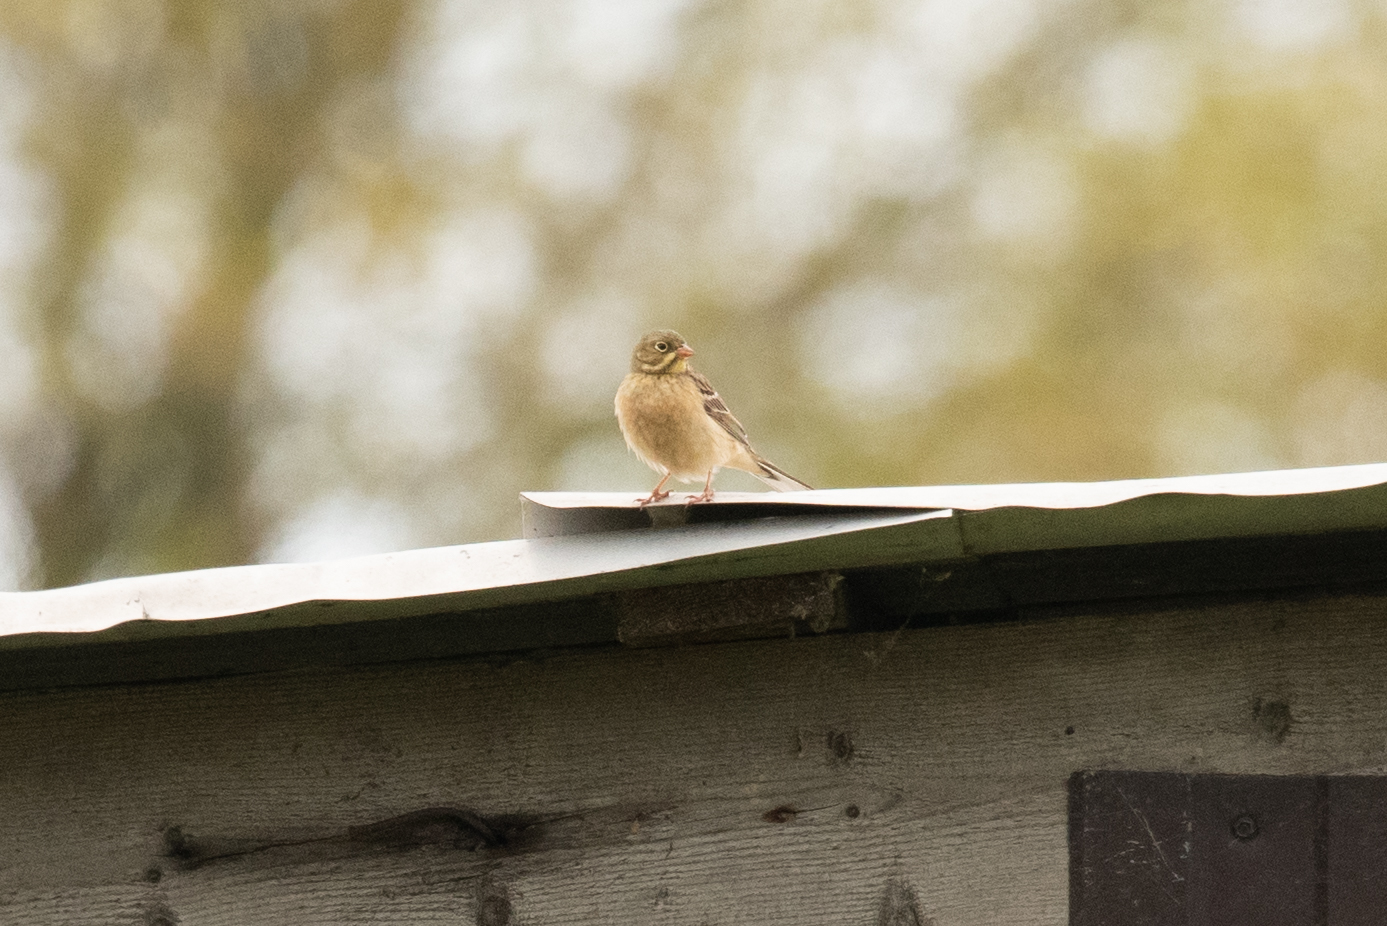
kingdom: Animalia
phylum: Chordata
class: Aves
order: Passeriformes
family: Emberizidae
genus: Emberiza
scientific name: Emberiza hortulana
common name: Ortolan bunting
